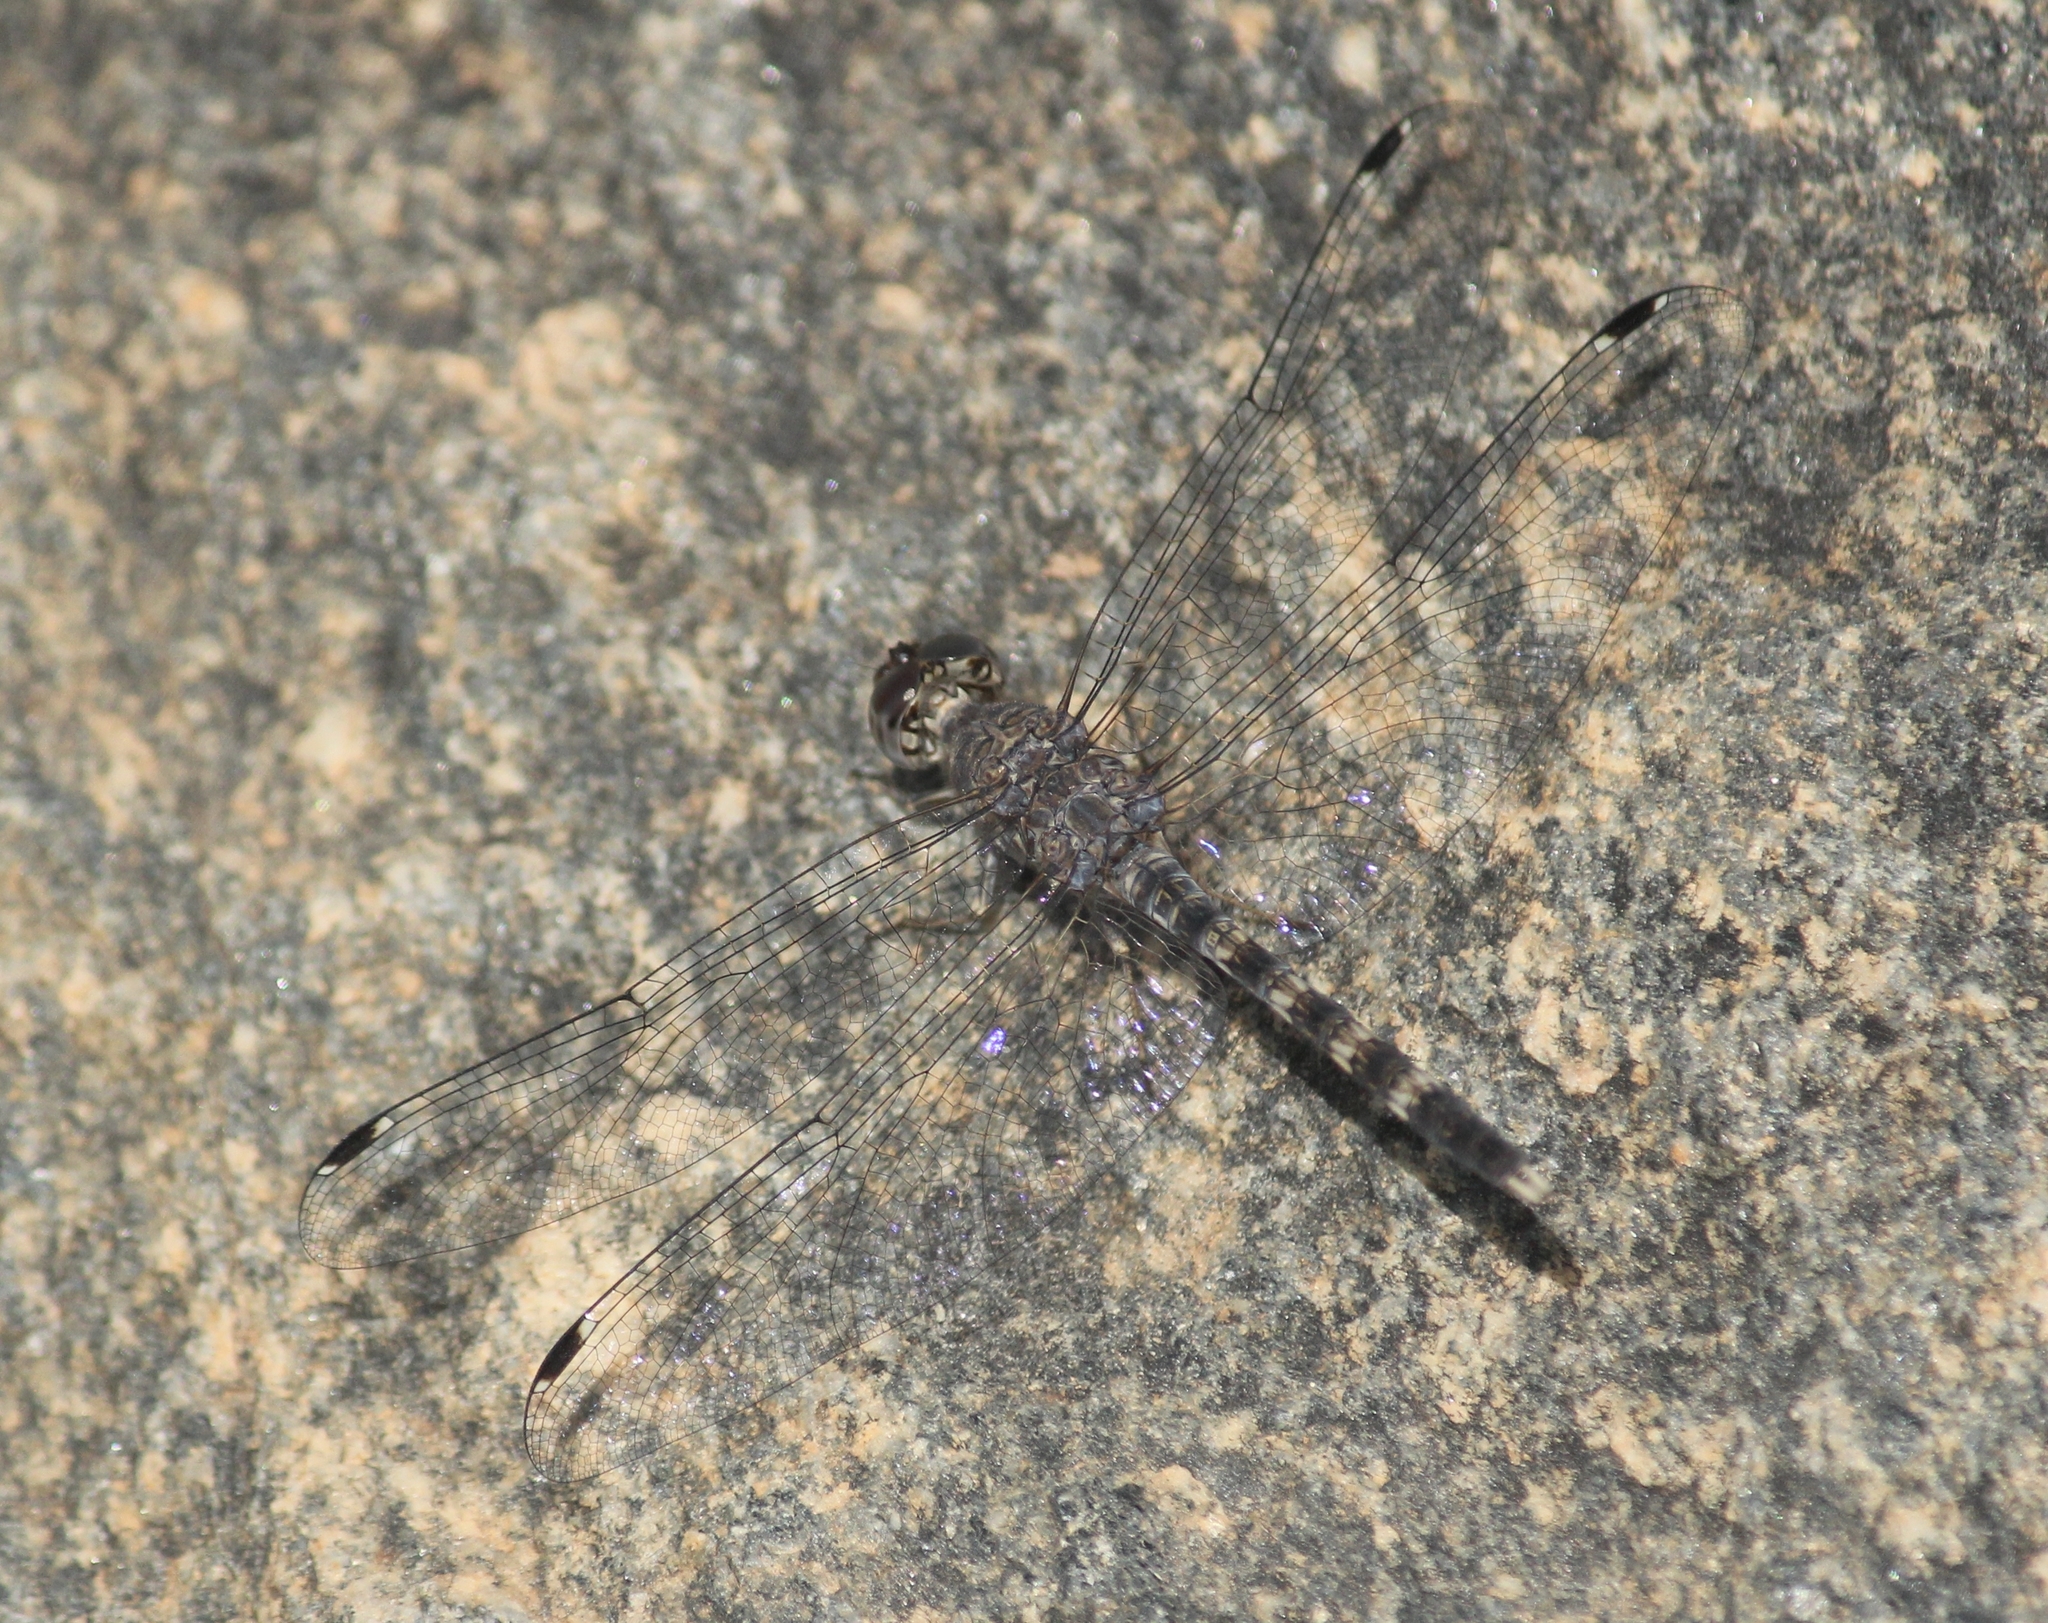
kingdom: Animalia
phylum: Arthropoda
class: Insecta
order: Odonata
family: Libellulidae
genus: Bradinopyga
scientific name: Bradinopyga geminata
